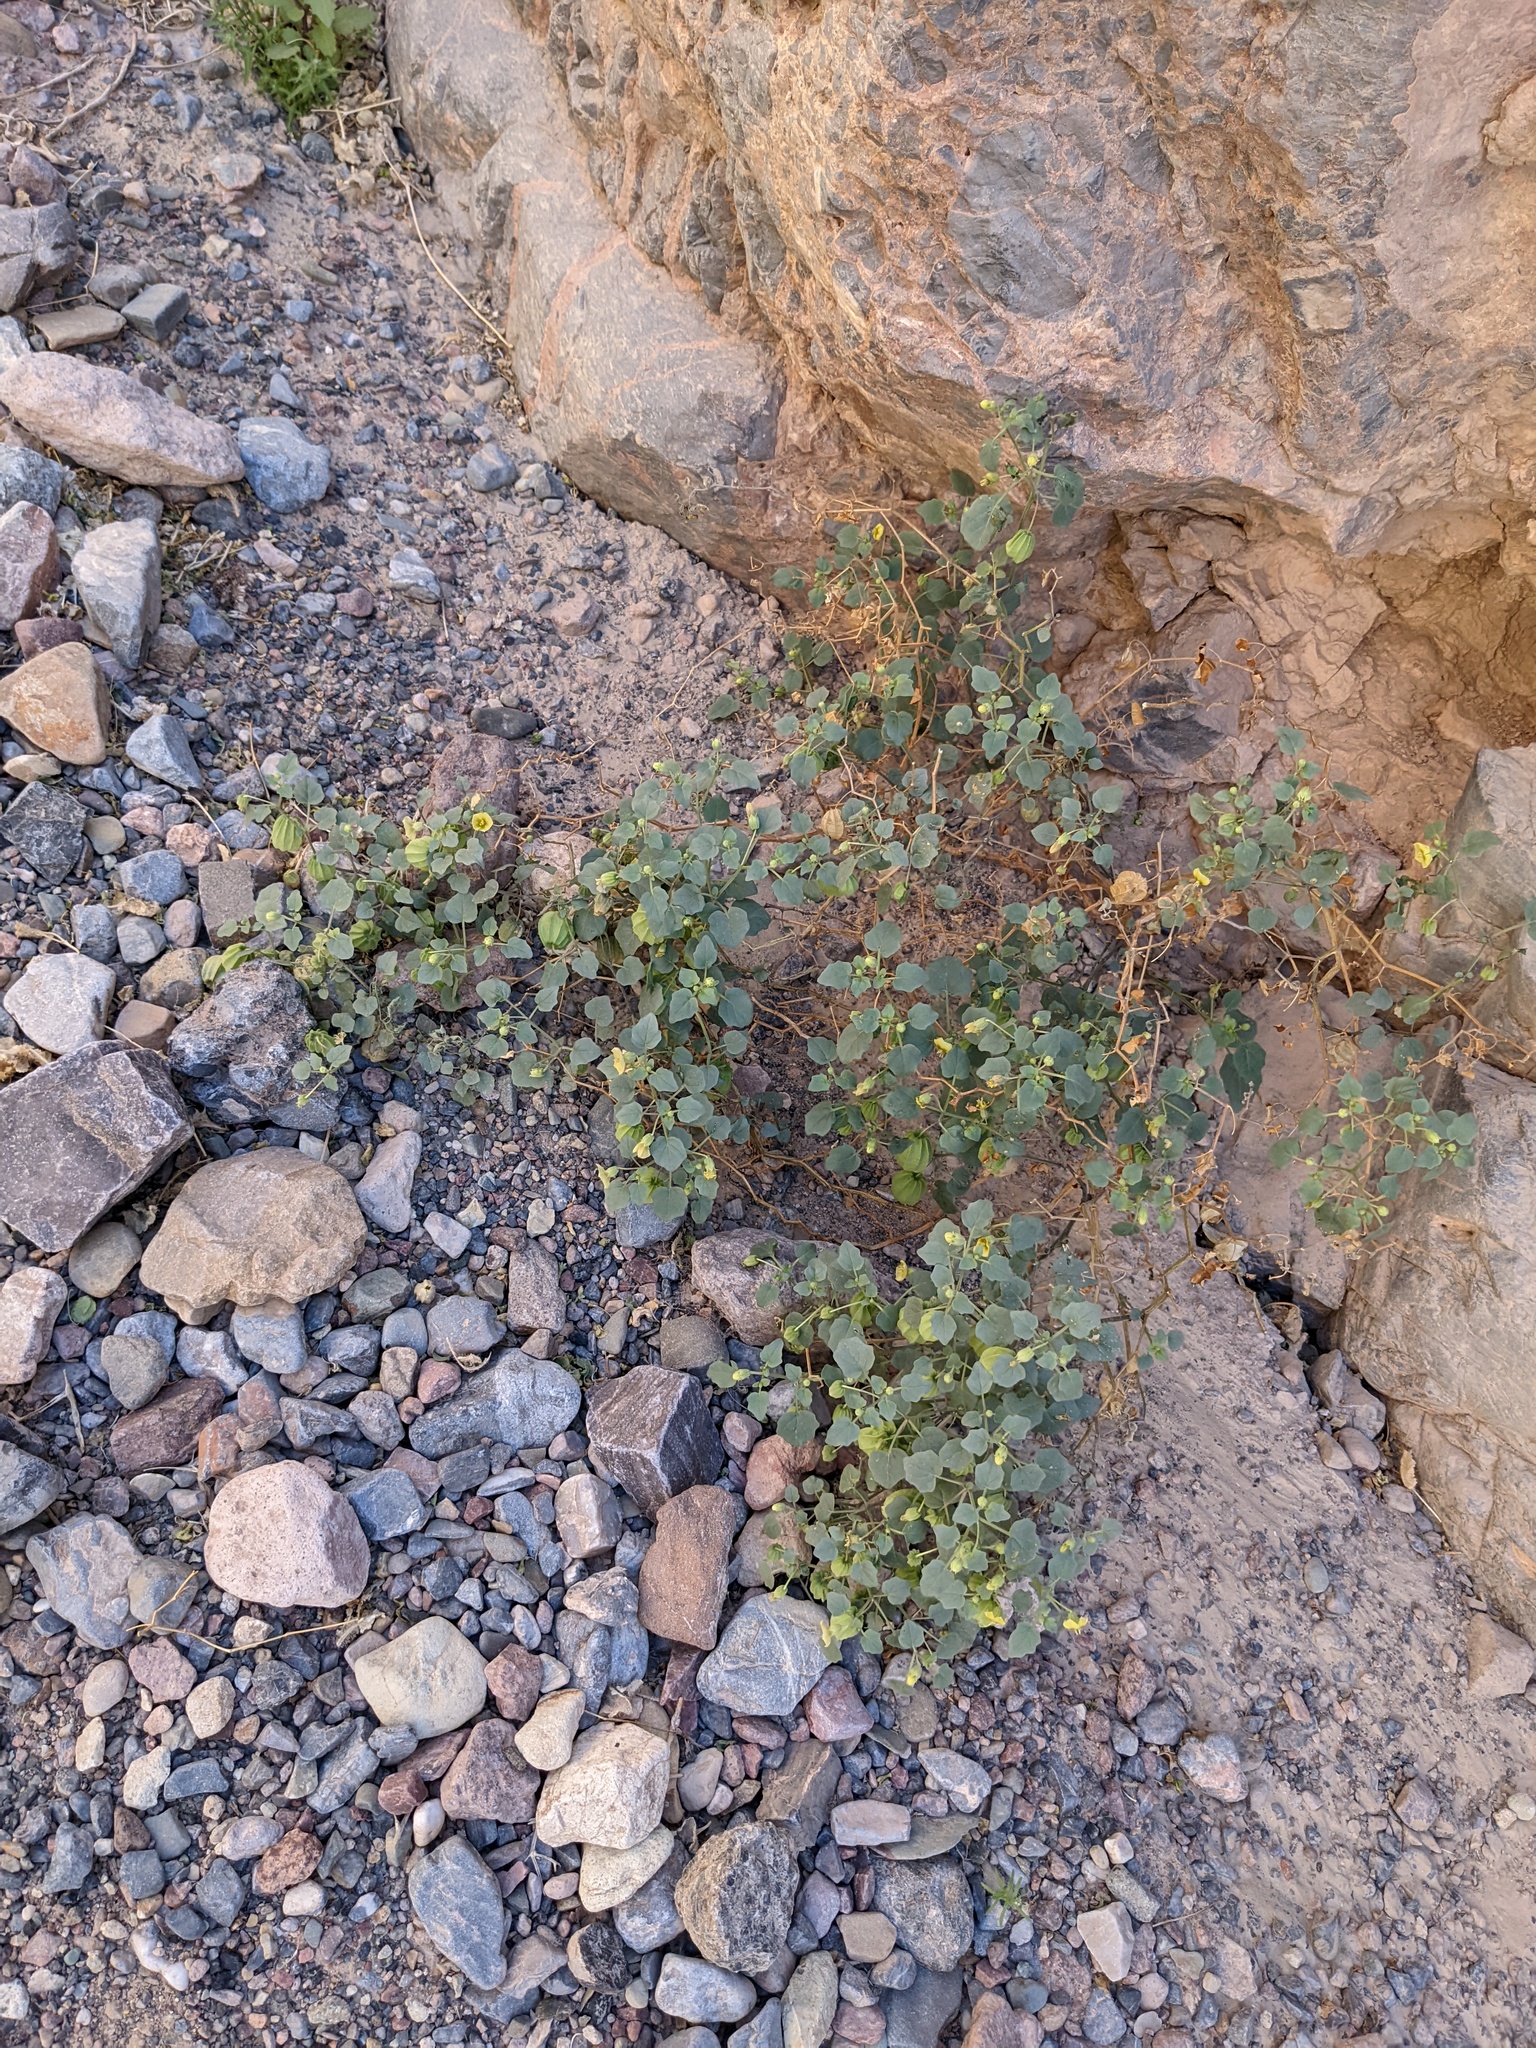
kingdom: Plantae
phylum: Tracheophyta
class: Magnoliopsida
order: Solanales
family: Solanaceae
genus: Physalis
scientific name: Physalis crassifolia
